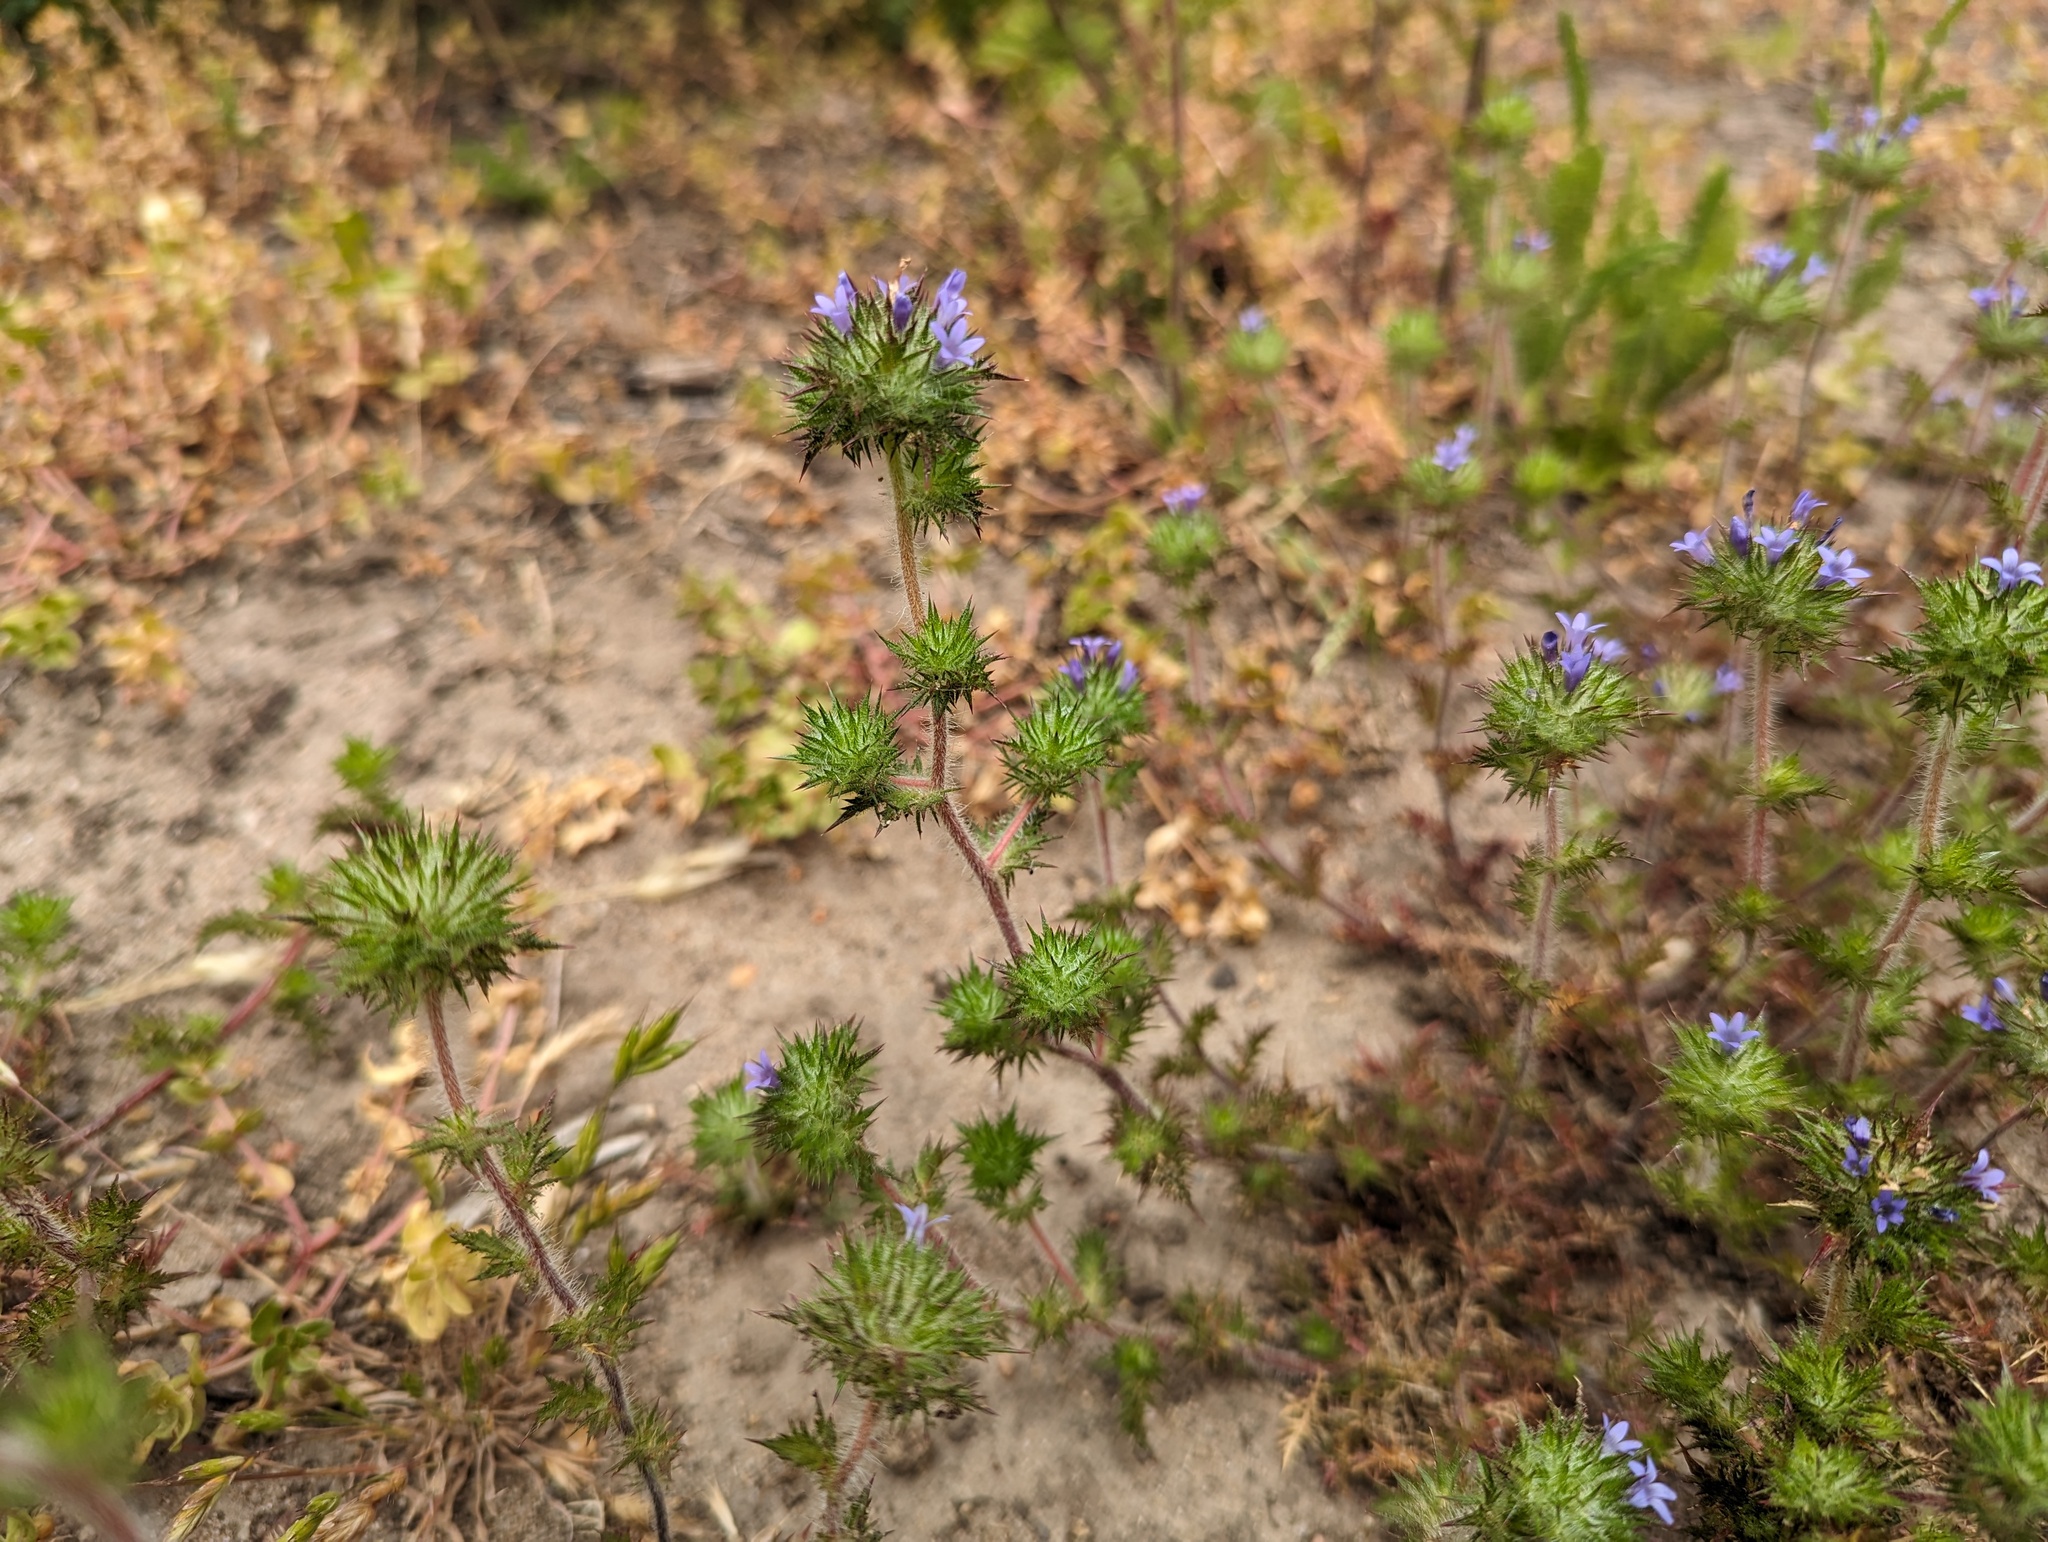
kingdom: Plantae
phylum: Tracheophyta
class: Magnoliopsida
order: Ericales
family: Polemoniaceae
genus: Navarretia
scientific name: Navarretia squarrosa
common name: Skunkweed
